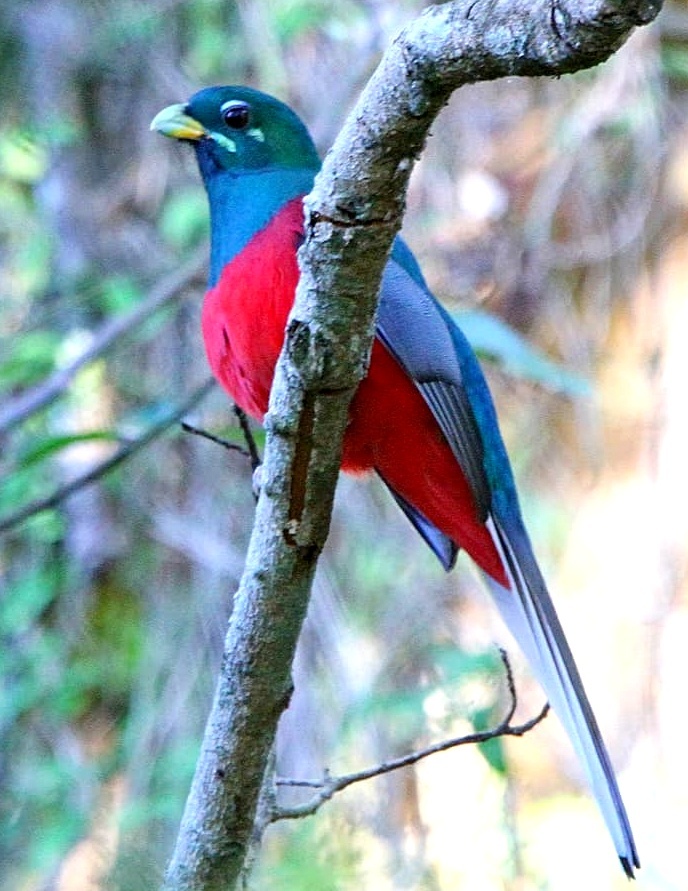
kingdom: Animalia
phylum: Chordata
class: Aves
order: Trogoniformes
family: Trogonidae
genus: Apaloderma
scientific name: Apaloderma narina
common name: Narina trogon
